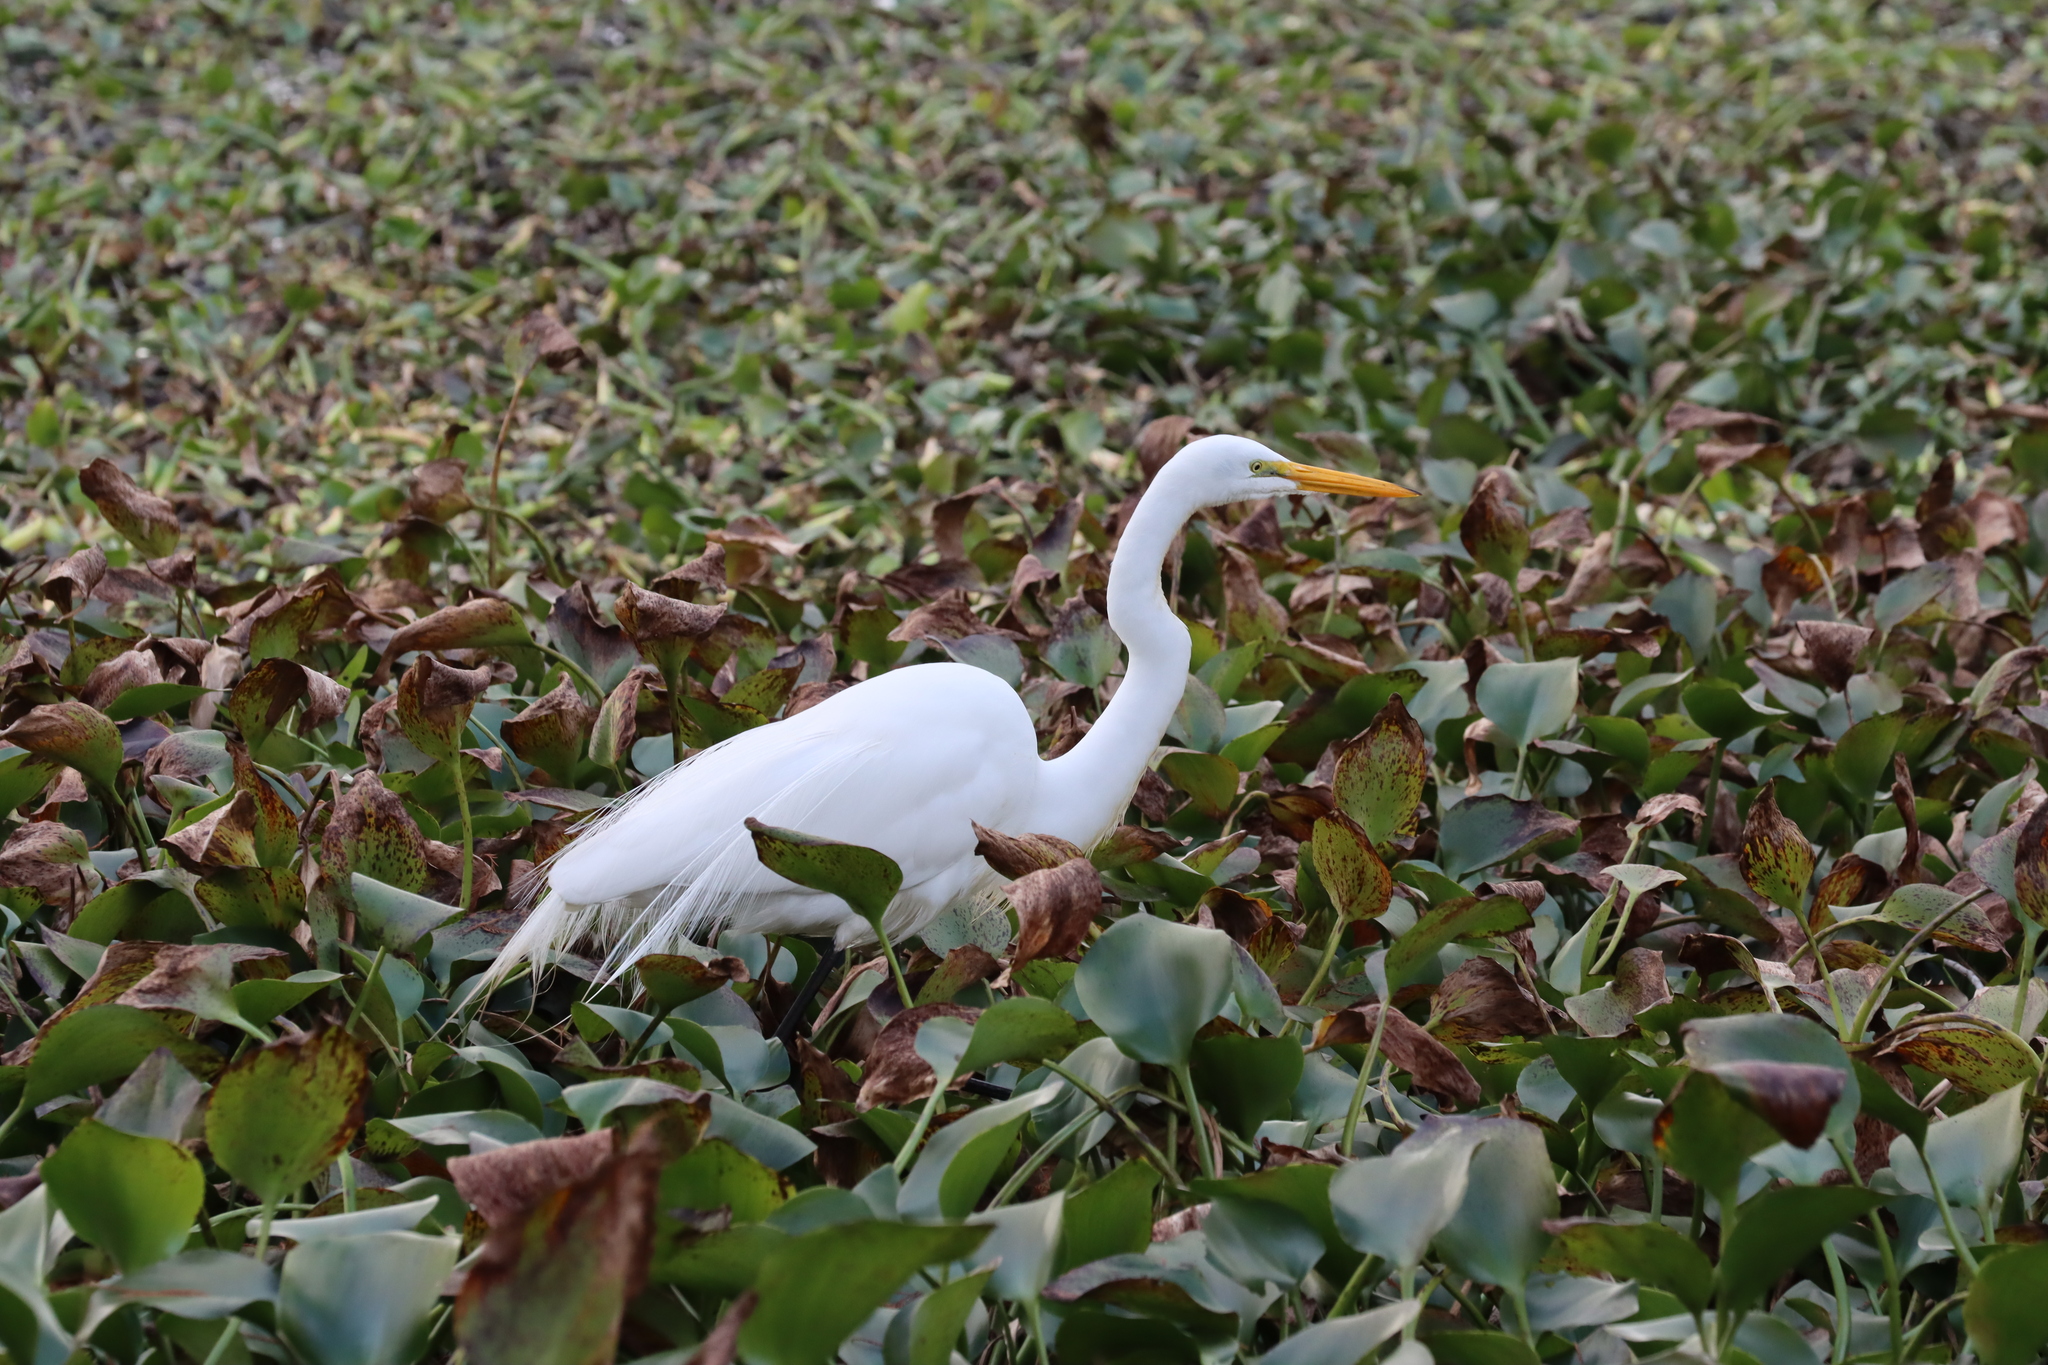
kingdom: Animalia
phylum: Chordata
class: Aves
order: Pelecaniformes
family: Ardeidae
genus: Ardea
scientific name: Ardea alba
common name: Great egret
